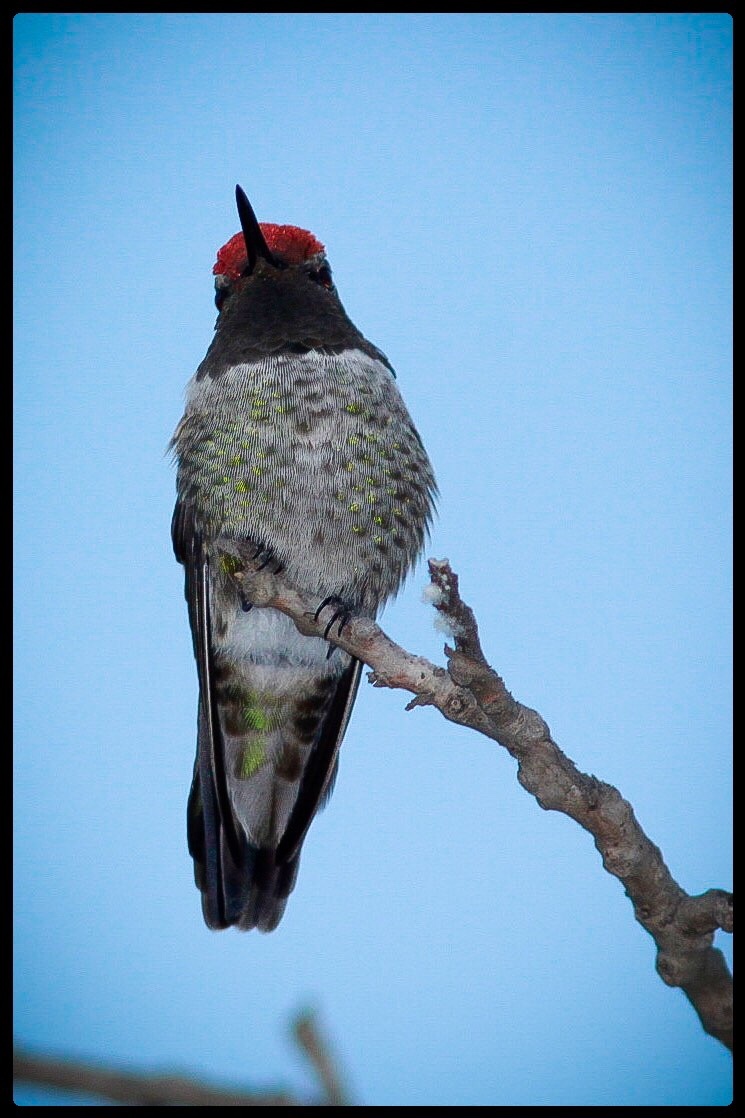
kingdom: Animalia
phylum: Chordata
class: Aves
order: Apodiformes
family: Trochilidae
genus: Calypte
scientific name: Calypte anna
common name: Anna's hummingbird
